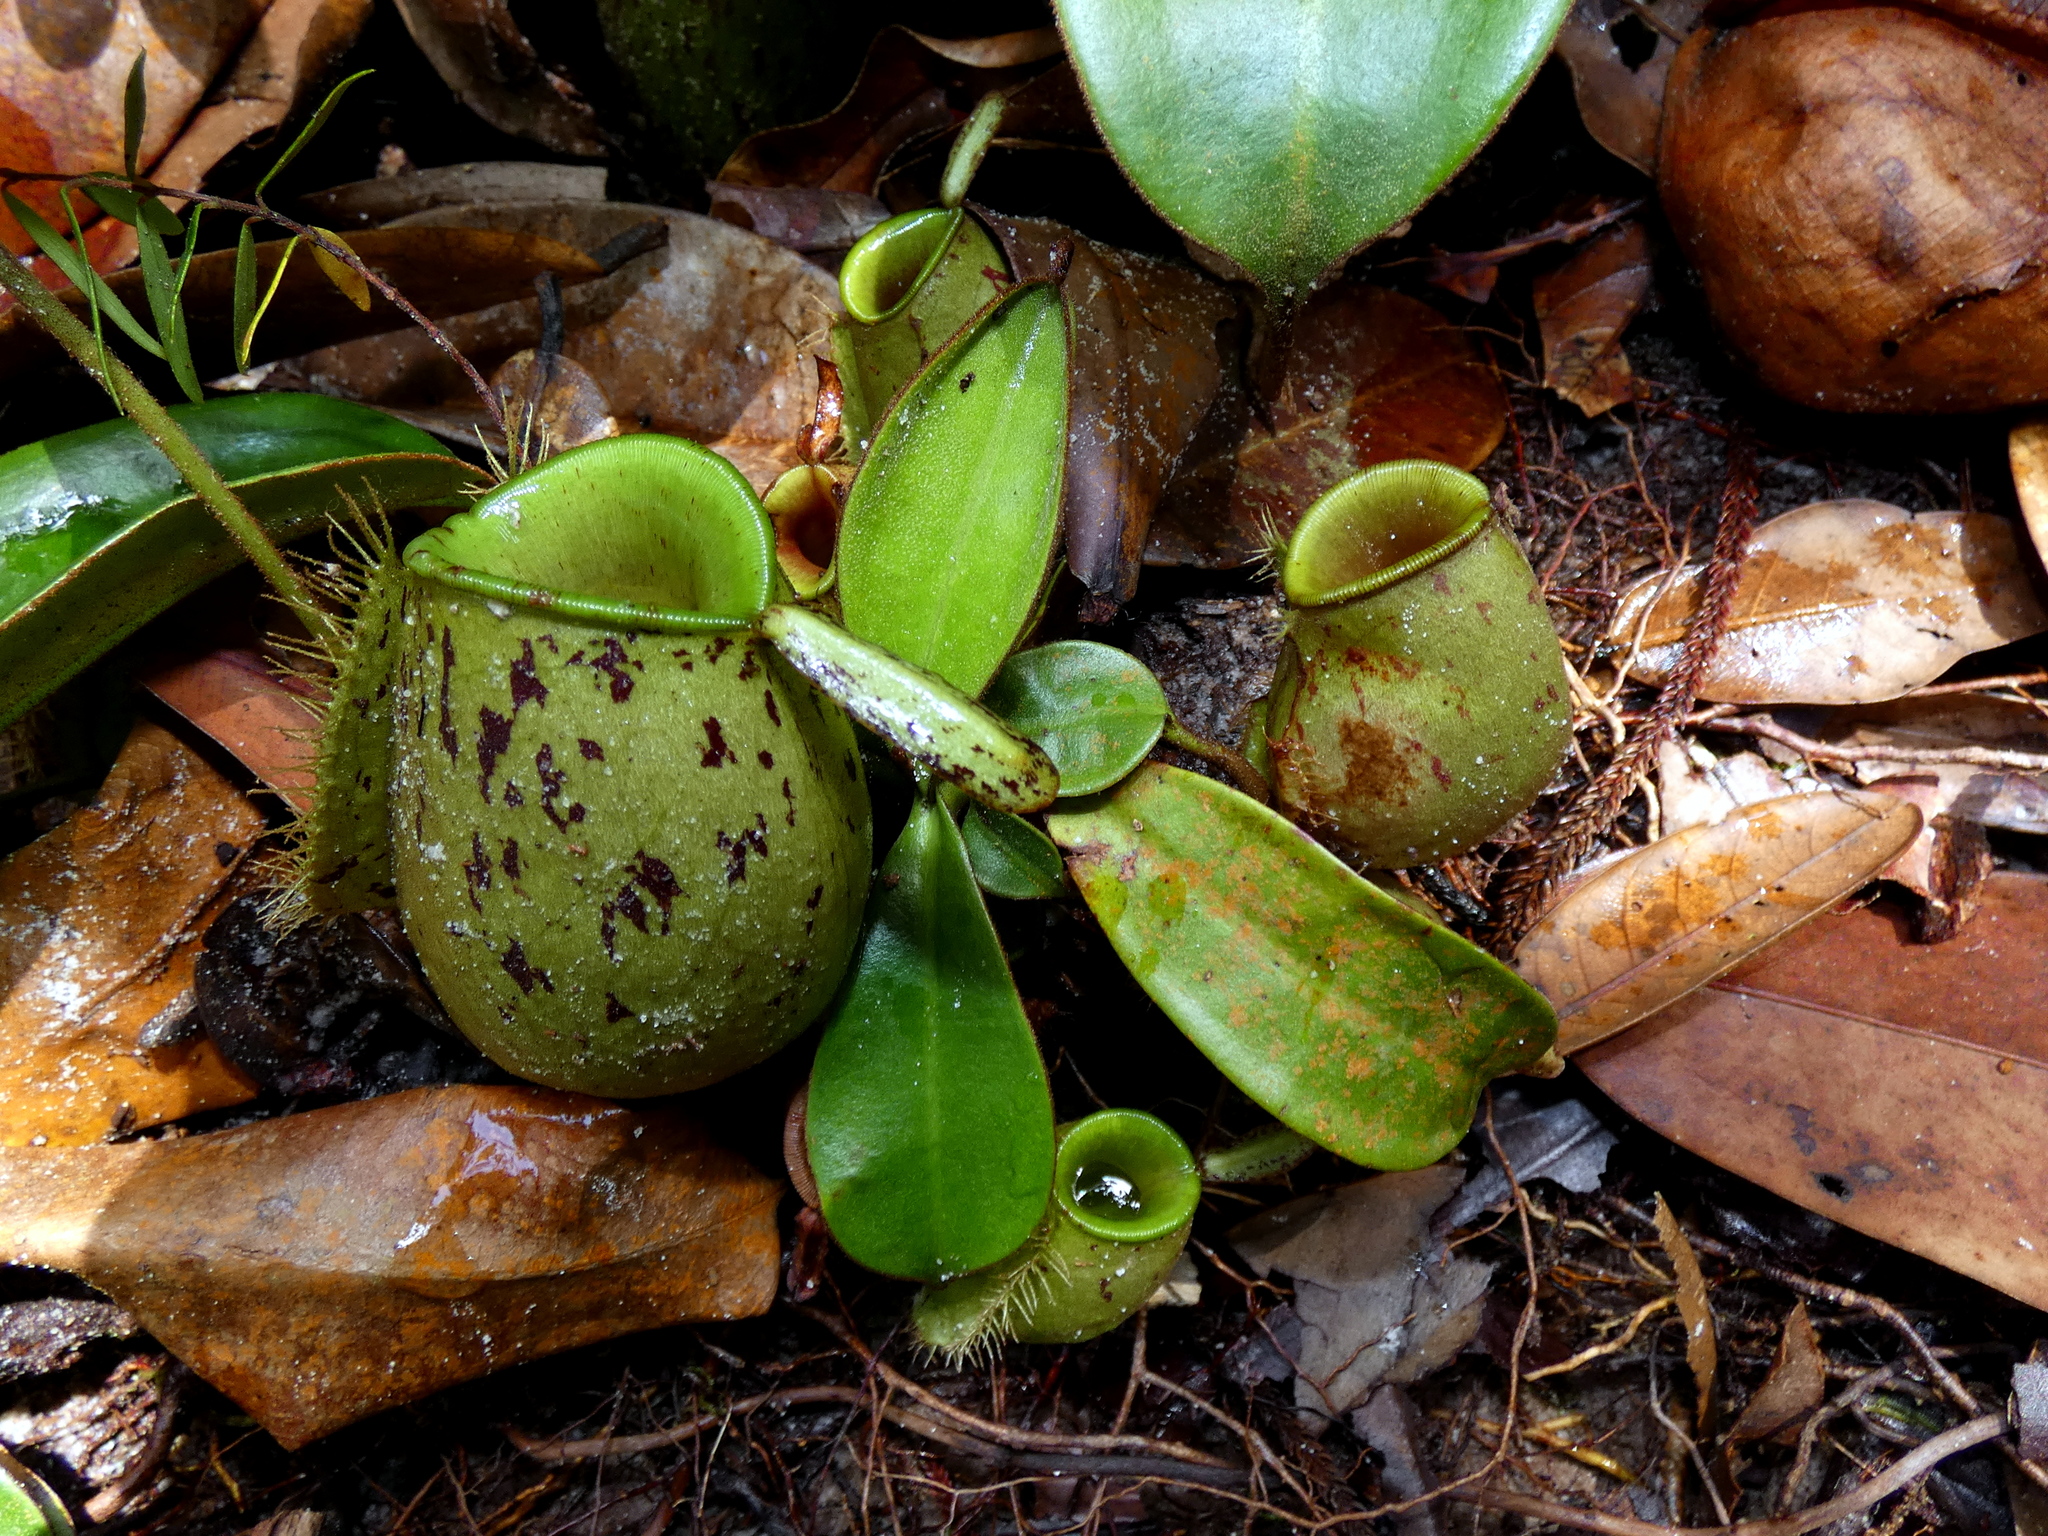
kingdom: Plantae
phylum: Tracheophyta
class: Magnoliopsida
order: Caryophyllales
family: Nepenthaceae
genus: Nepenthes
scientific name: Nepenthes ampullaria
